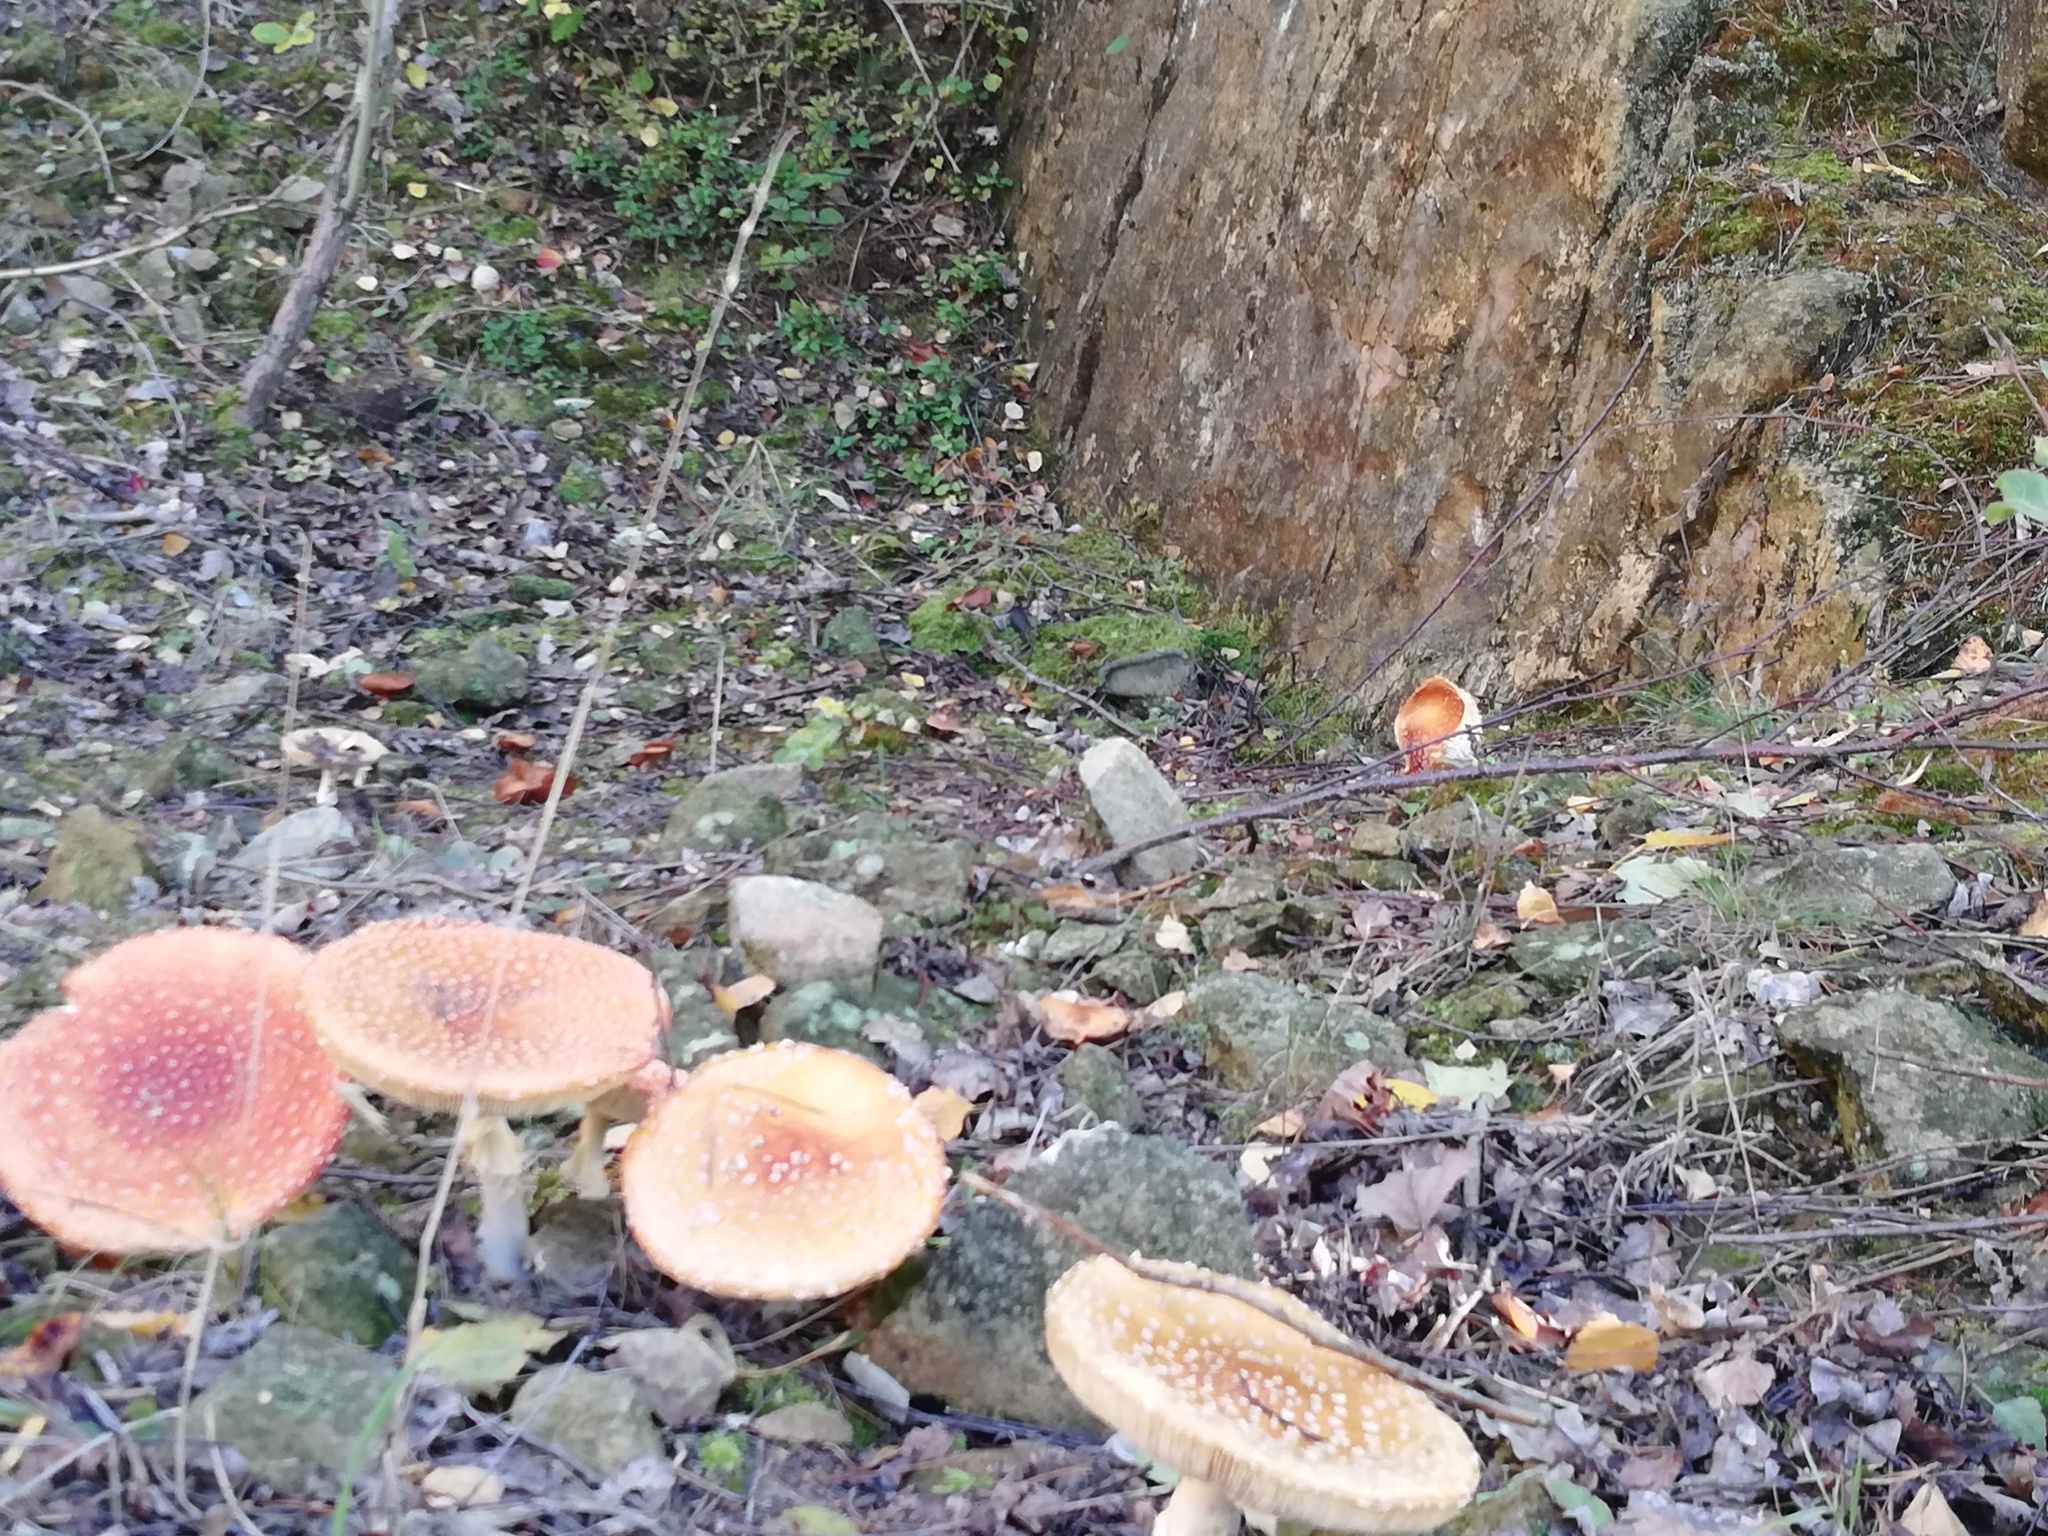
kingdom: Fungi
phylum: Basidiomycota
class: Agaricomycetes
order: Agaricales
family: Amanitaceae
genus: Amanita
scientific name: Amanita muscaria
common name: Fly agaric
